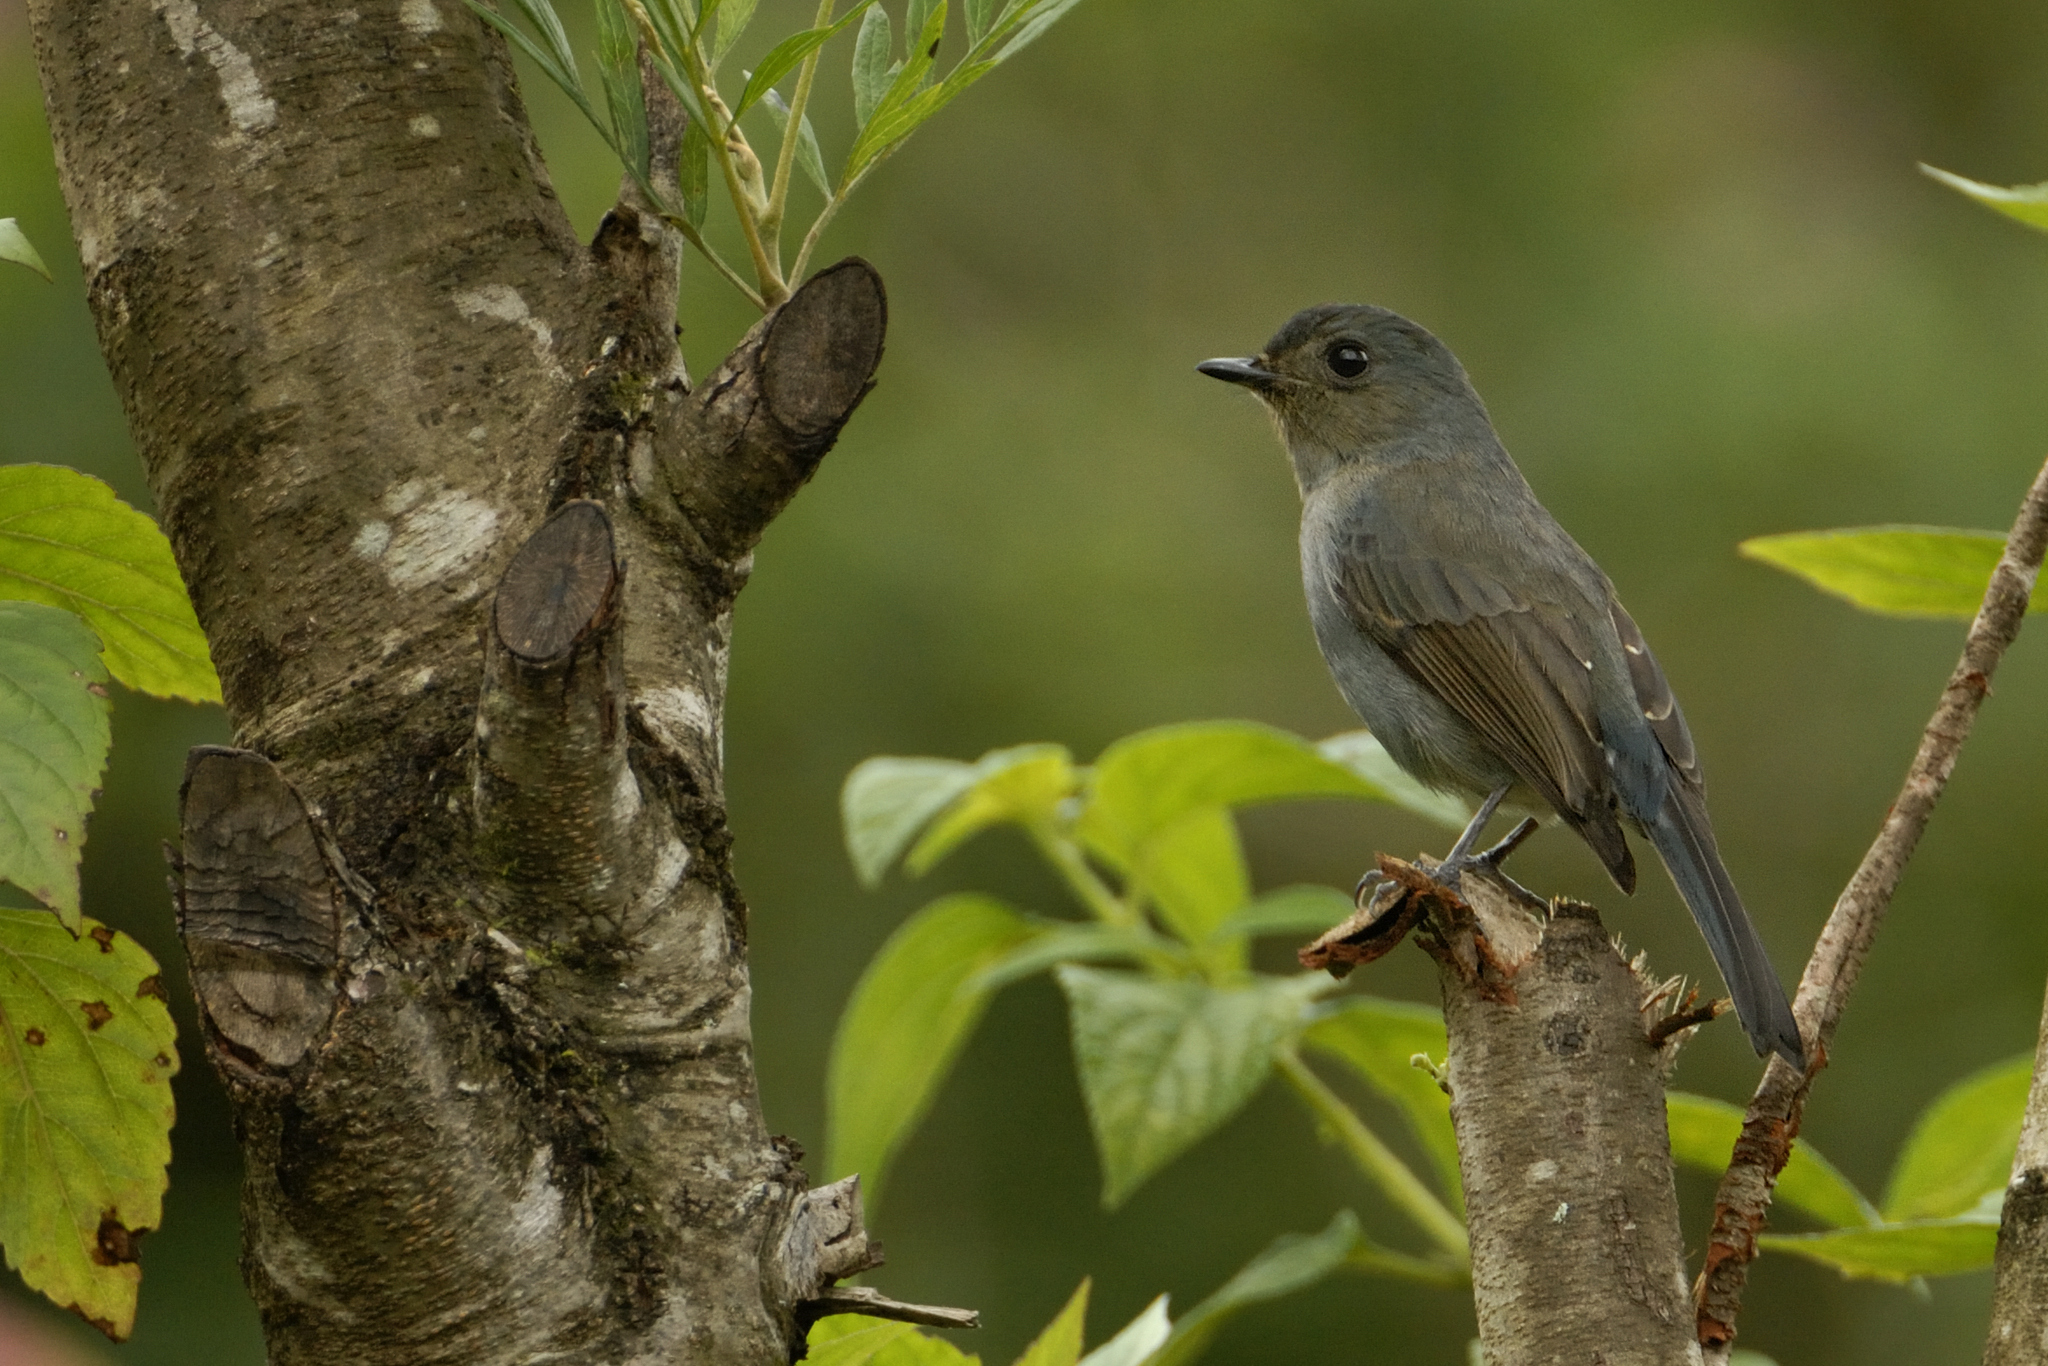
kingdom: Animalia
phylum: Chordata
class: Aves
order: Passeriformes
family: Muscicapidae
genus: Eumyias
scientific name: Eumyias albicaudatus
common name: Nilgiri flycatcher
